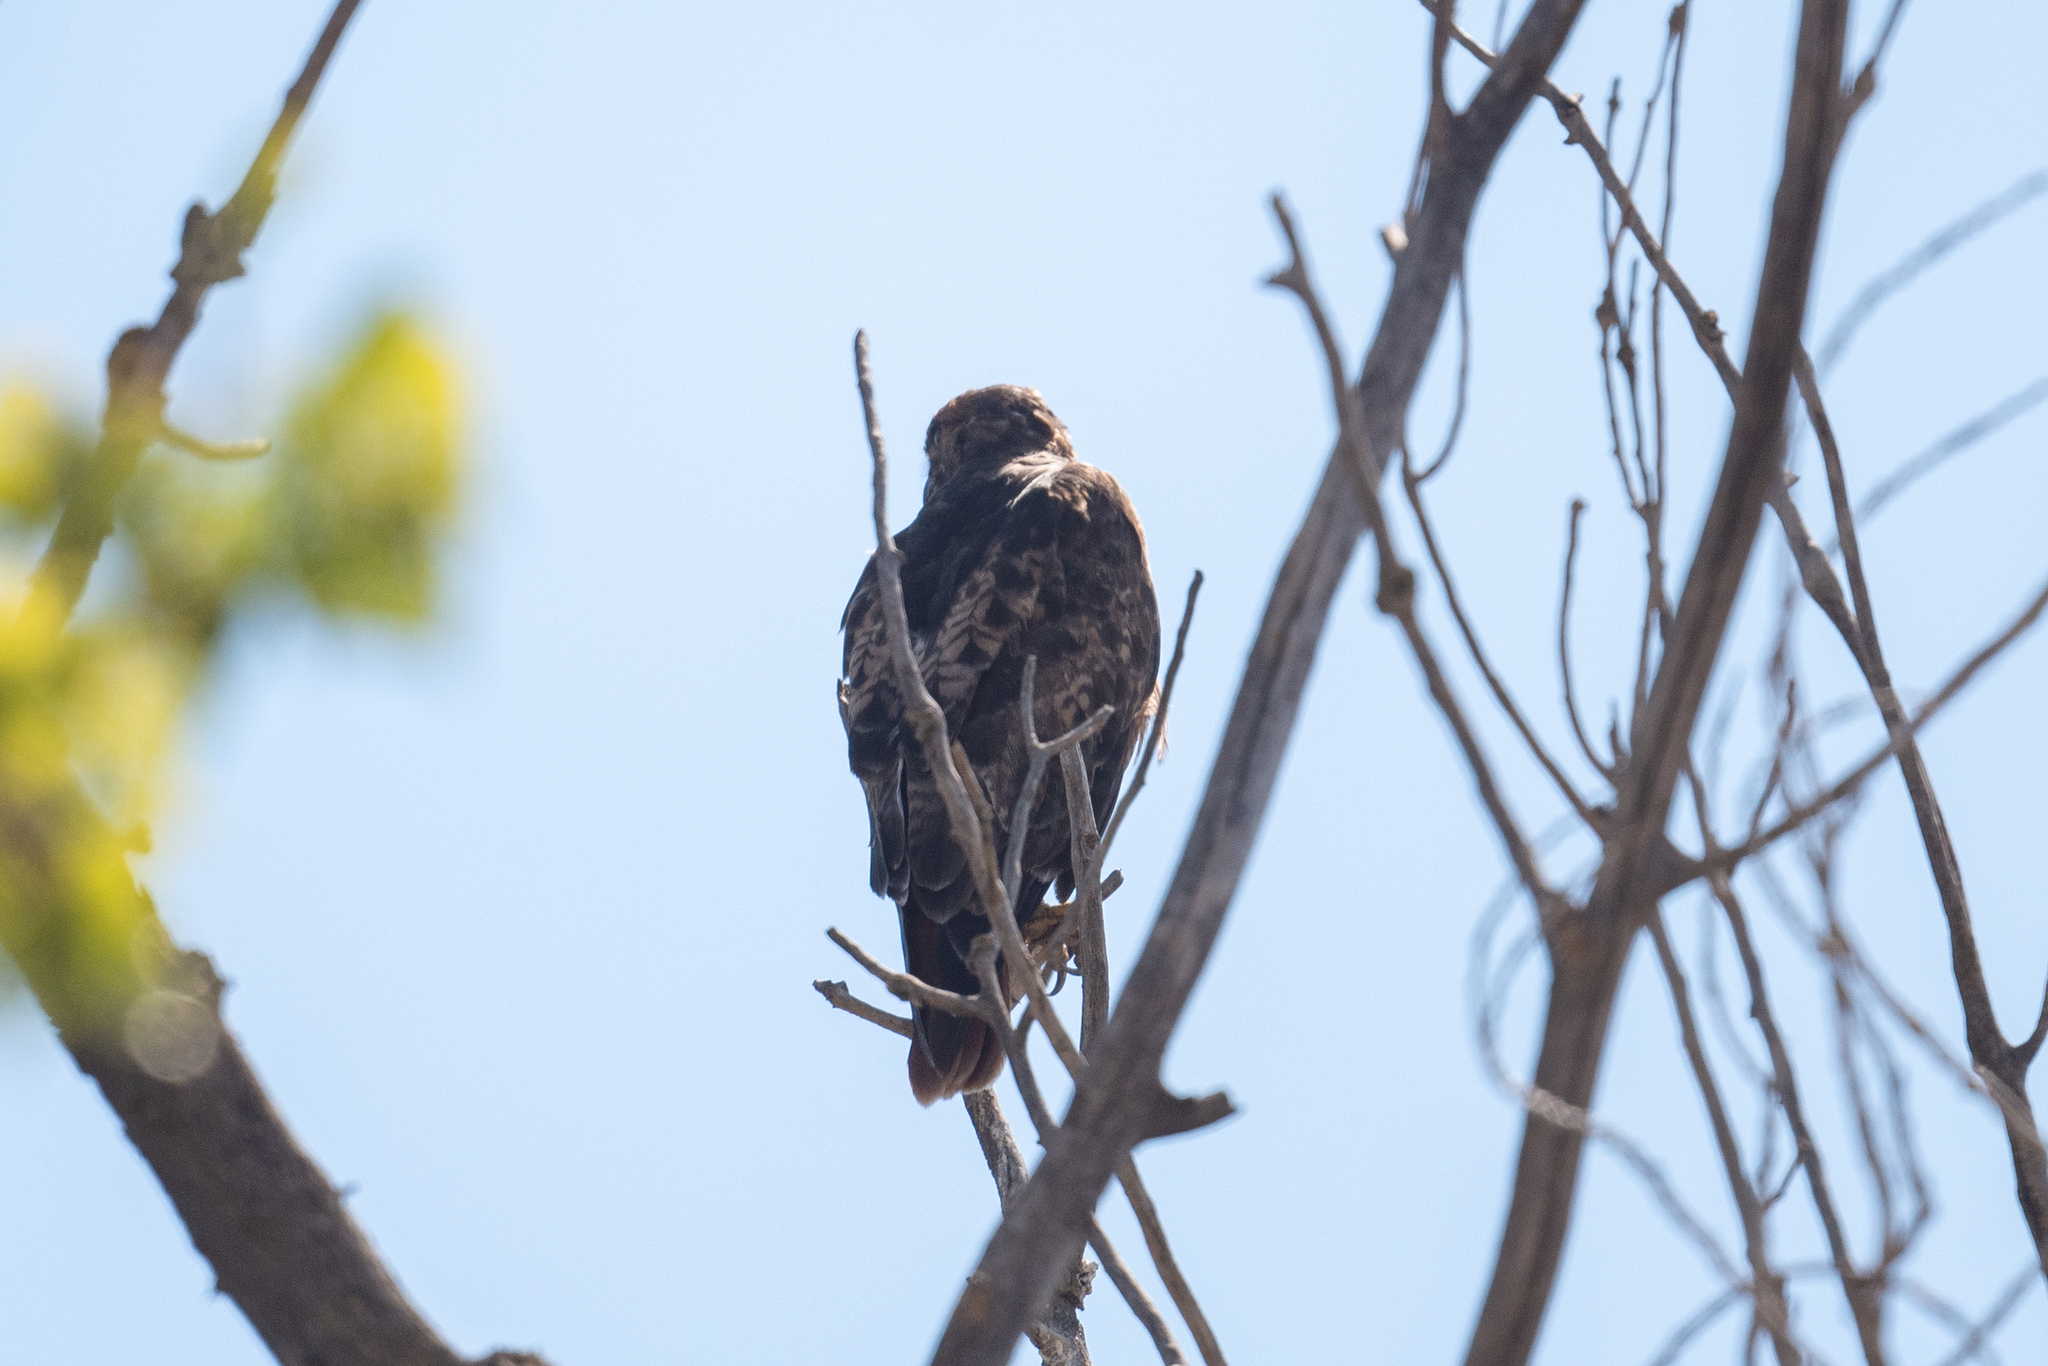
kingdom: Animalia
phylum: Chordata
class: Aves
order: Accipitriformes
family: Accipitridae
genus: Buteo
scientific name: Buteo jamaicensis
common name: Red-tailed hawk
